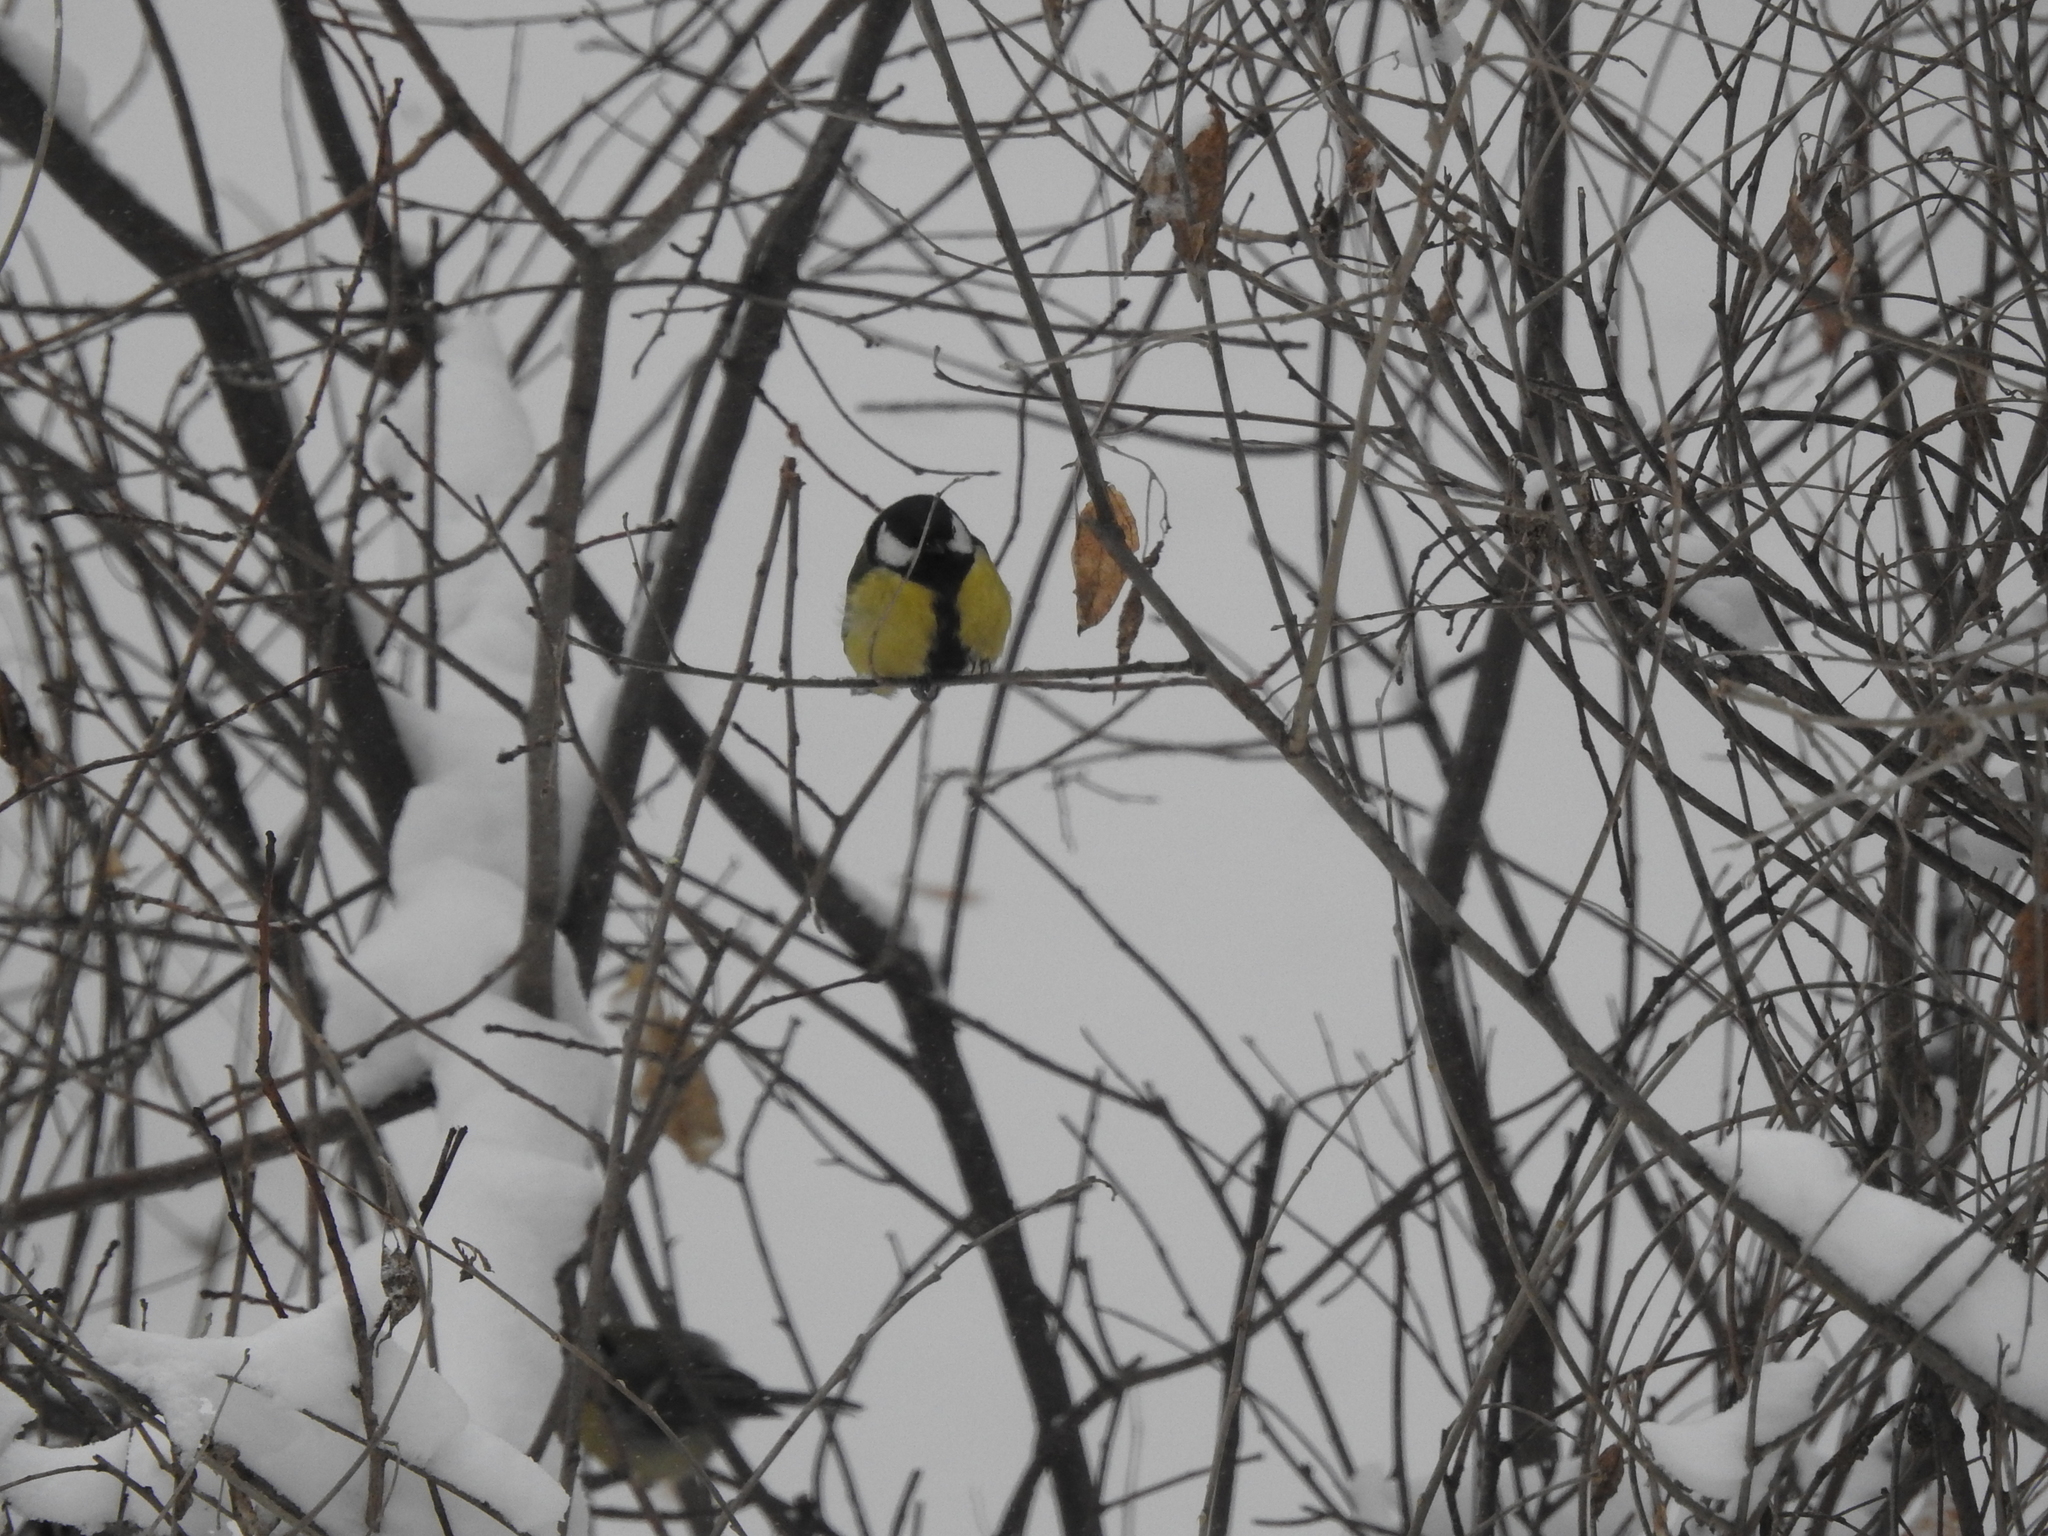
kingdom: Animalia
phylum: Chordata
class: Aves
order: Passeriformes
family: Paridae
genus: Parus
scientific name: Parus major
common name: Great tit
